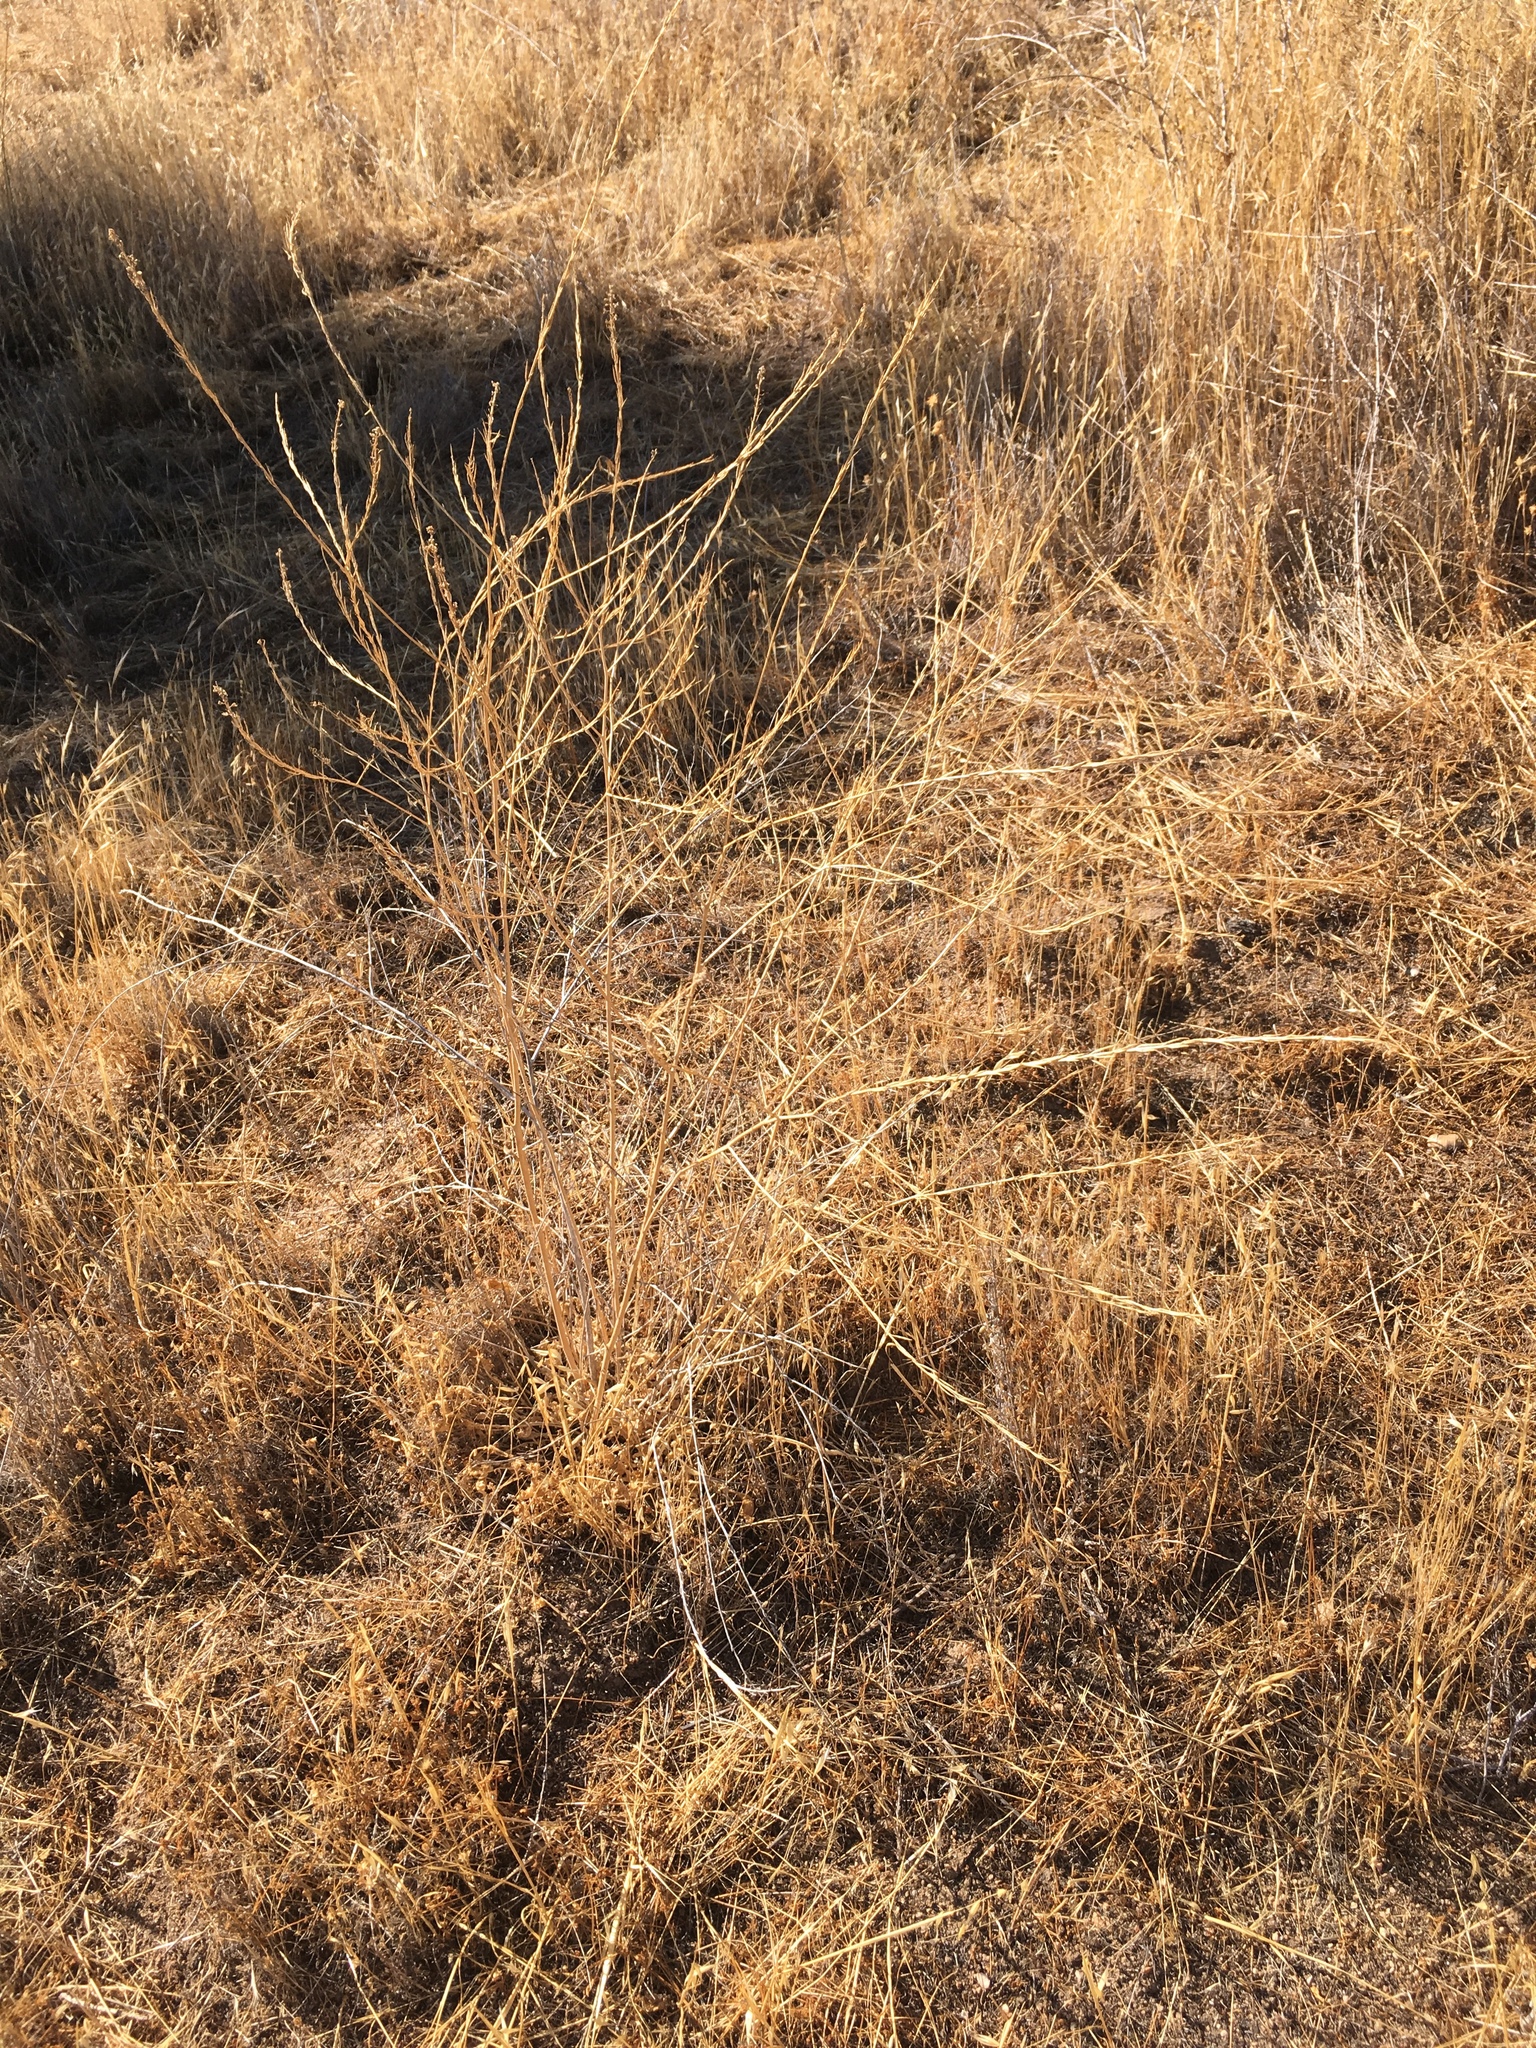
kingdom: Plantae
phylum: Tracheophyta
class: Magnoliopsida
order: Brassicales
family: Brassicaceae
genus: Hirschfeldia
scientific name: Hirschfeldia incana
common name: Hoary mustard
